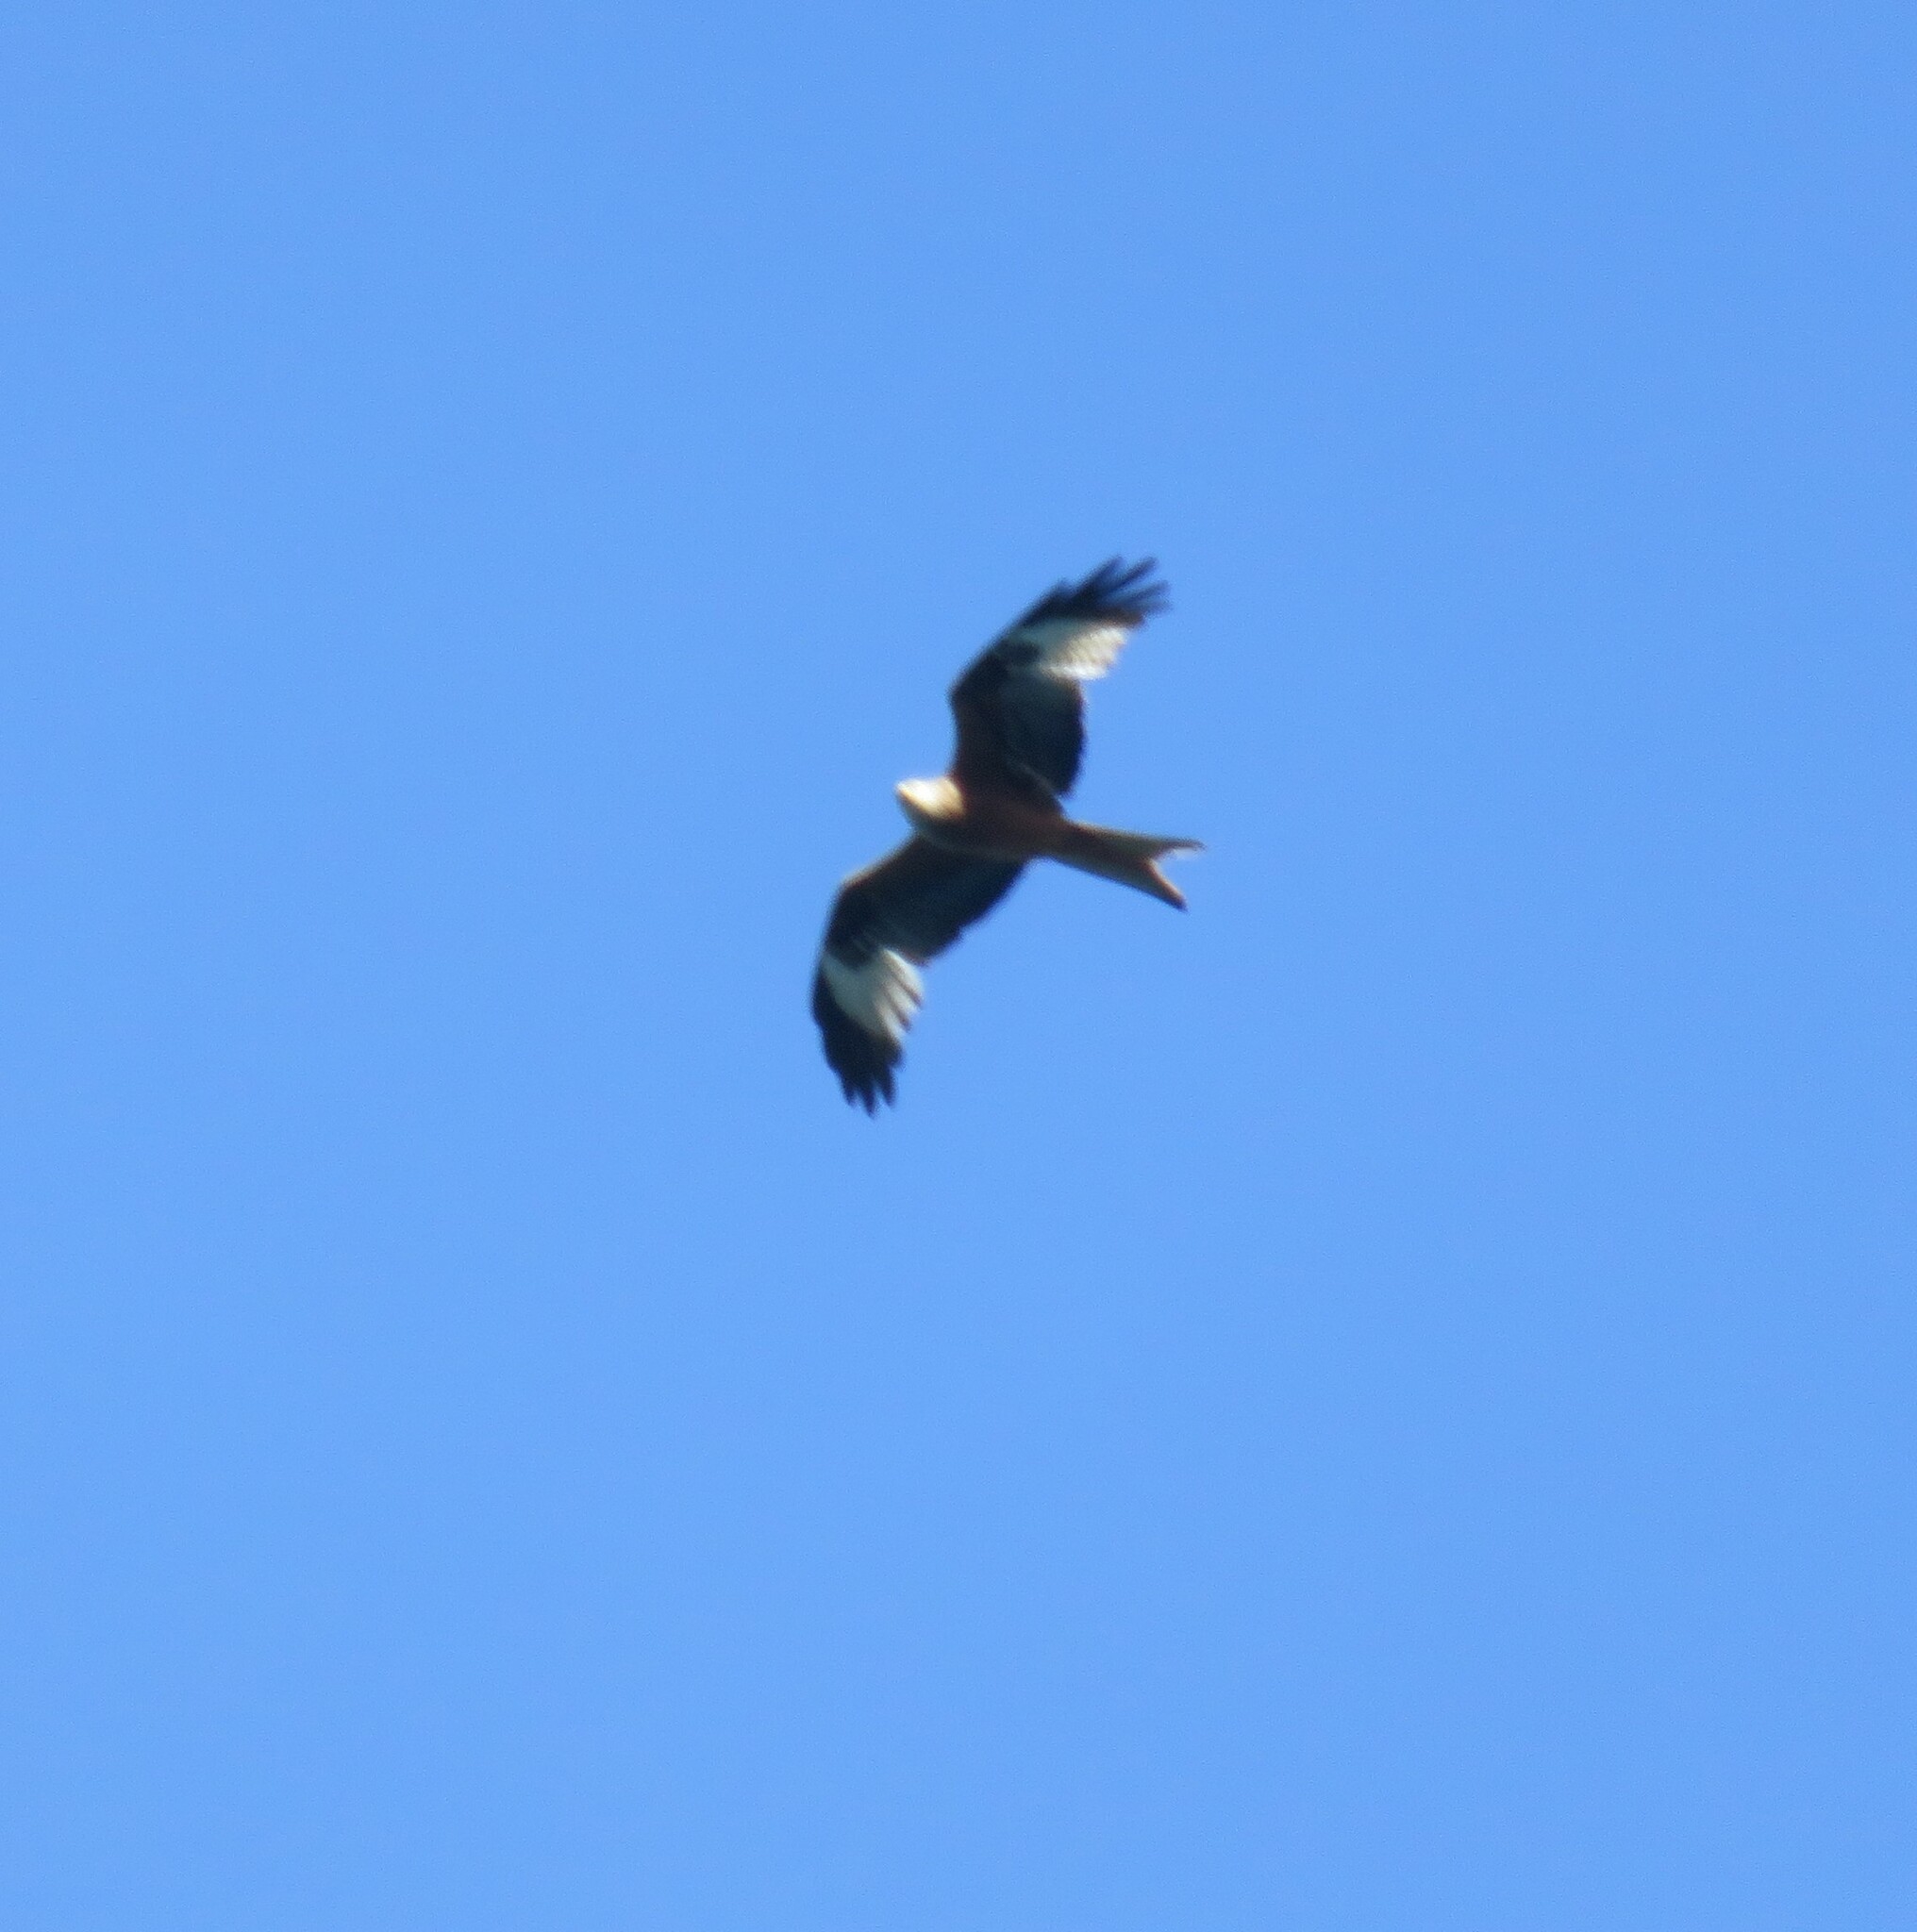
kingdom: Animalia
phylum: Chordata
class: Aves
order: Accipitriformes
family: Accipitridae
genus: Milvus
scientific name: Milvus milvus
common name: Red kite
